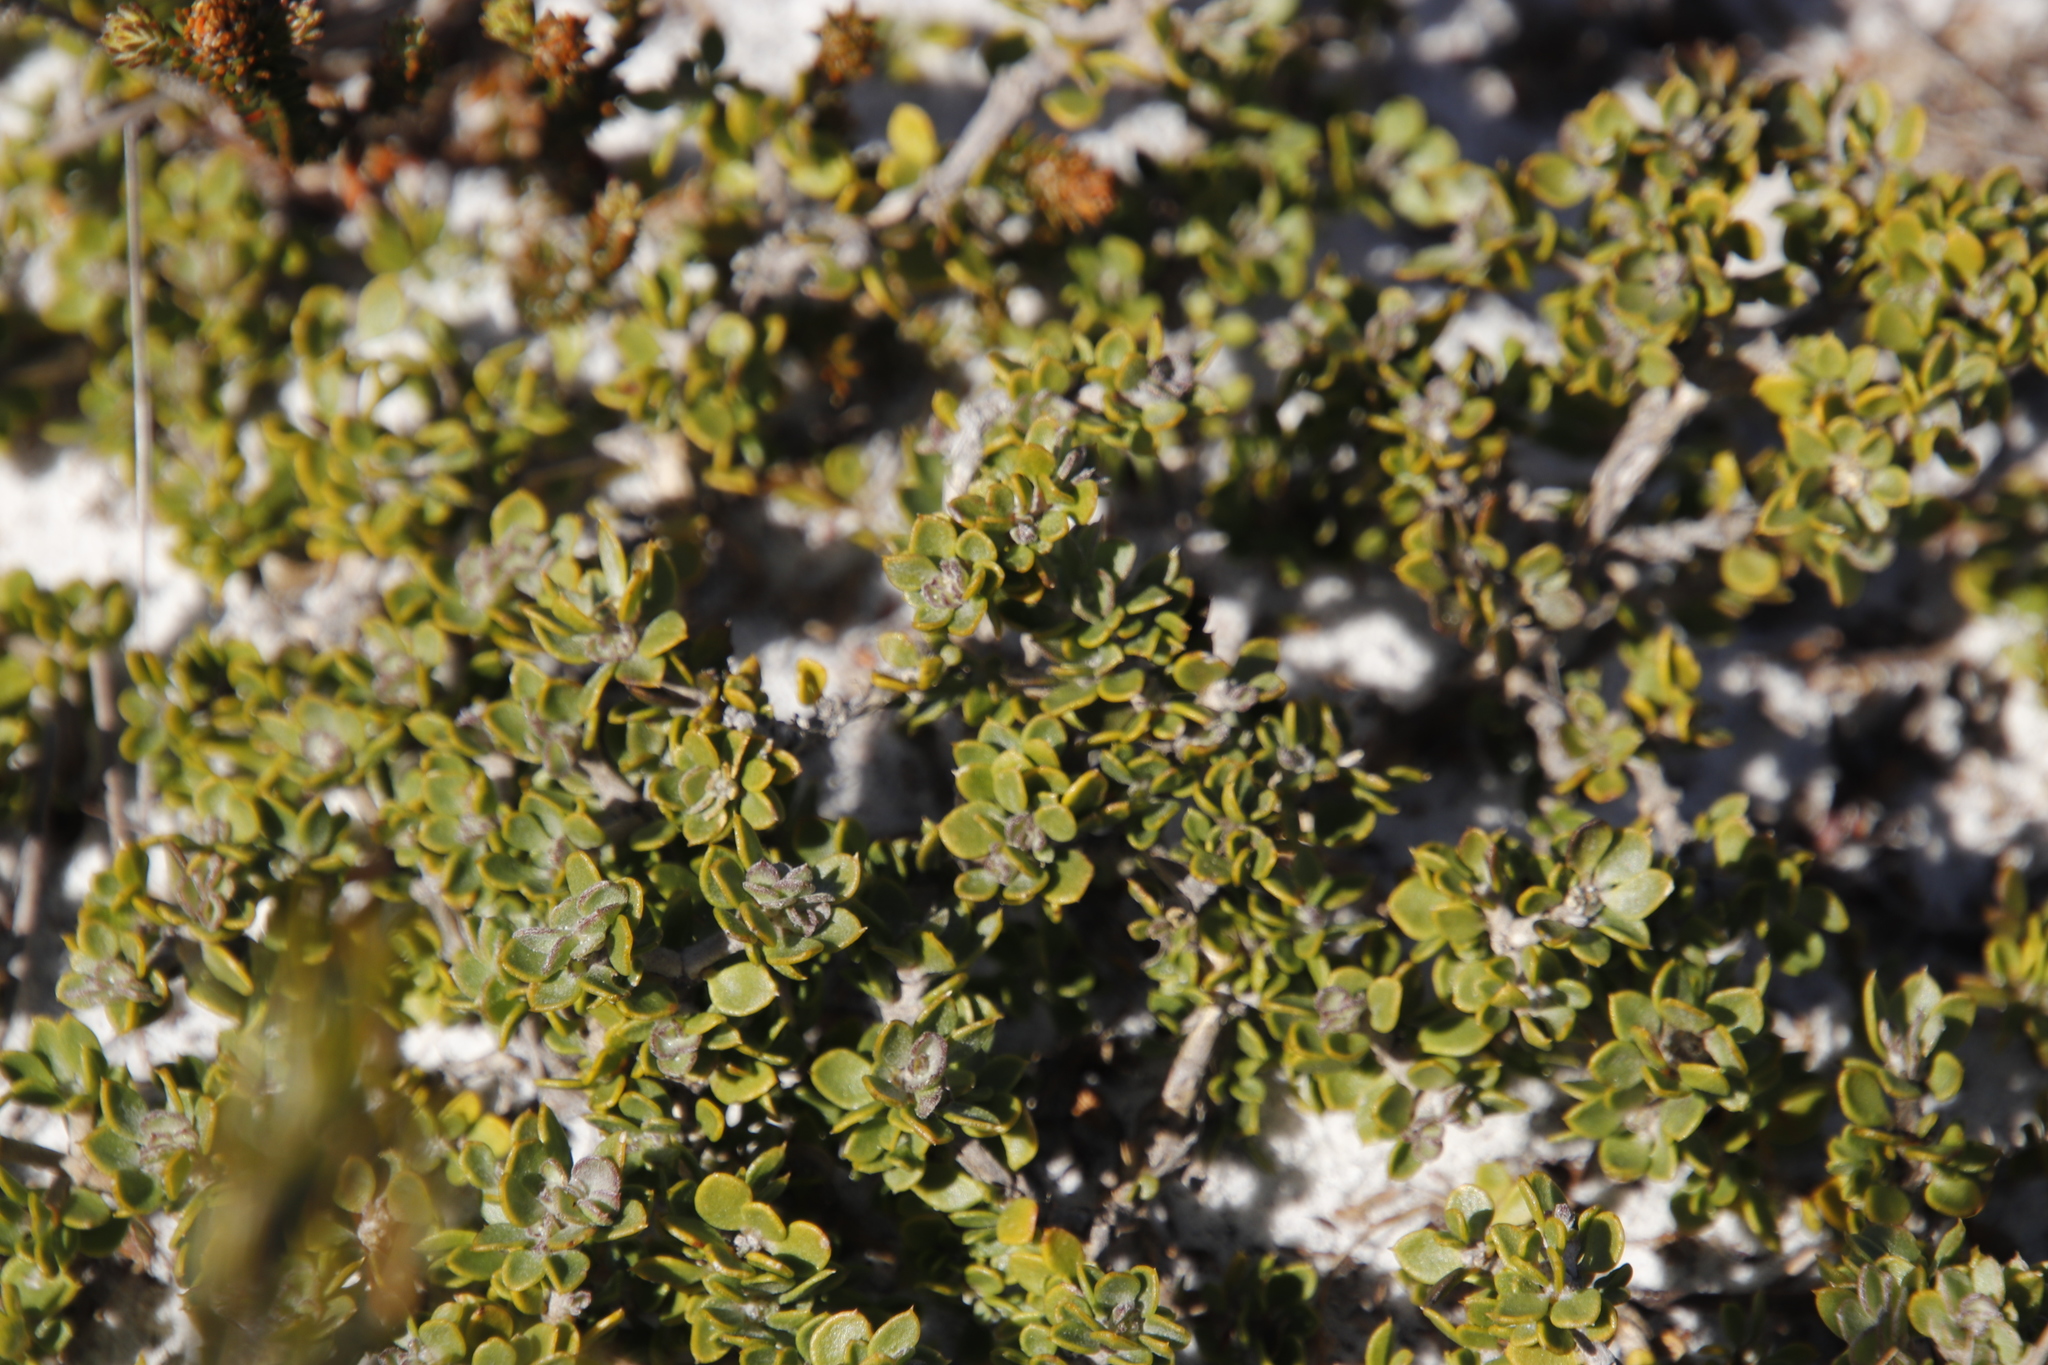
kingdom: Plantae
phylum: Tracheophyta
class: Magnoliopsida
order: Fabales
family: Fabaceae
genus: Aspalathus
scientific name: Aspalathus marginata
